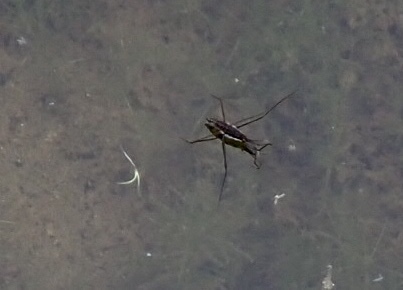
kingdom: Animalia
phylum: Arthropoda
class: Insecta
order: Hemiptera
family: Gerridae
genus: Aquarius
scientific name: Aquarius remigis
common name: Common water strider
